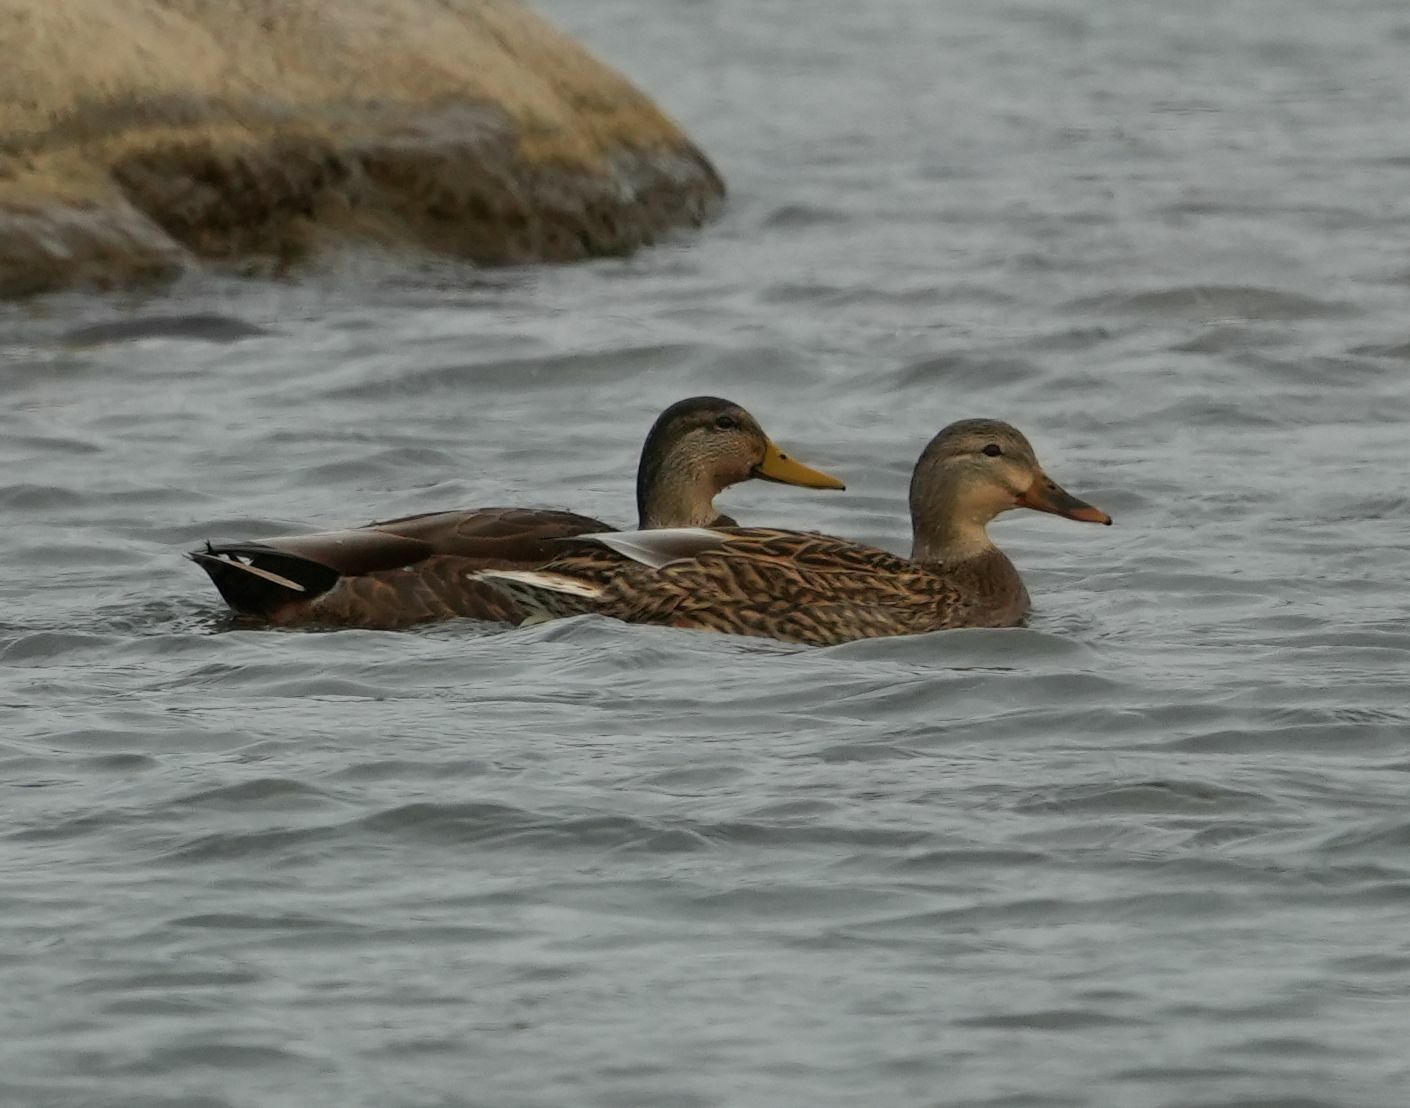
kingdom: Animalia
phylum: Chordata
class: Aves
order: Anseriformes
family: Anatidae
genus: Anas
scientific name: Anas
